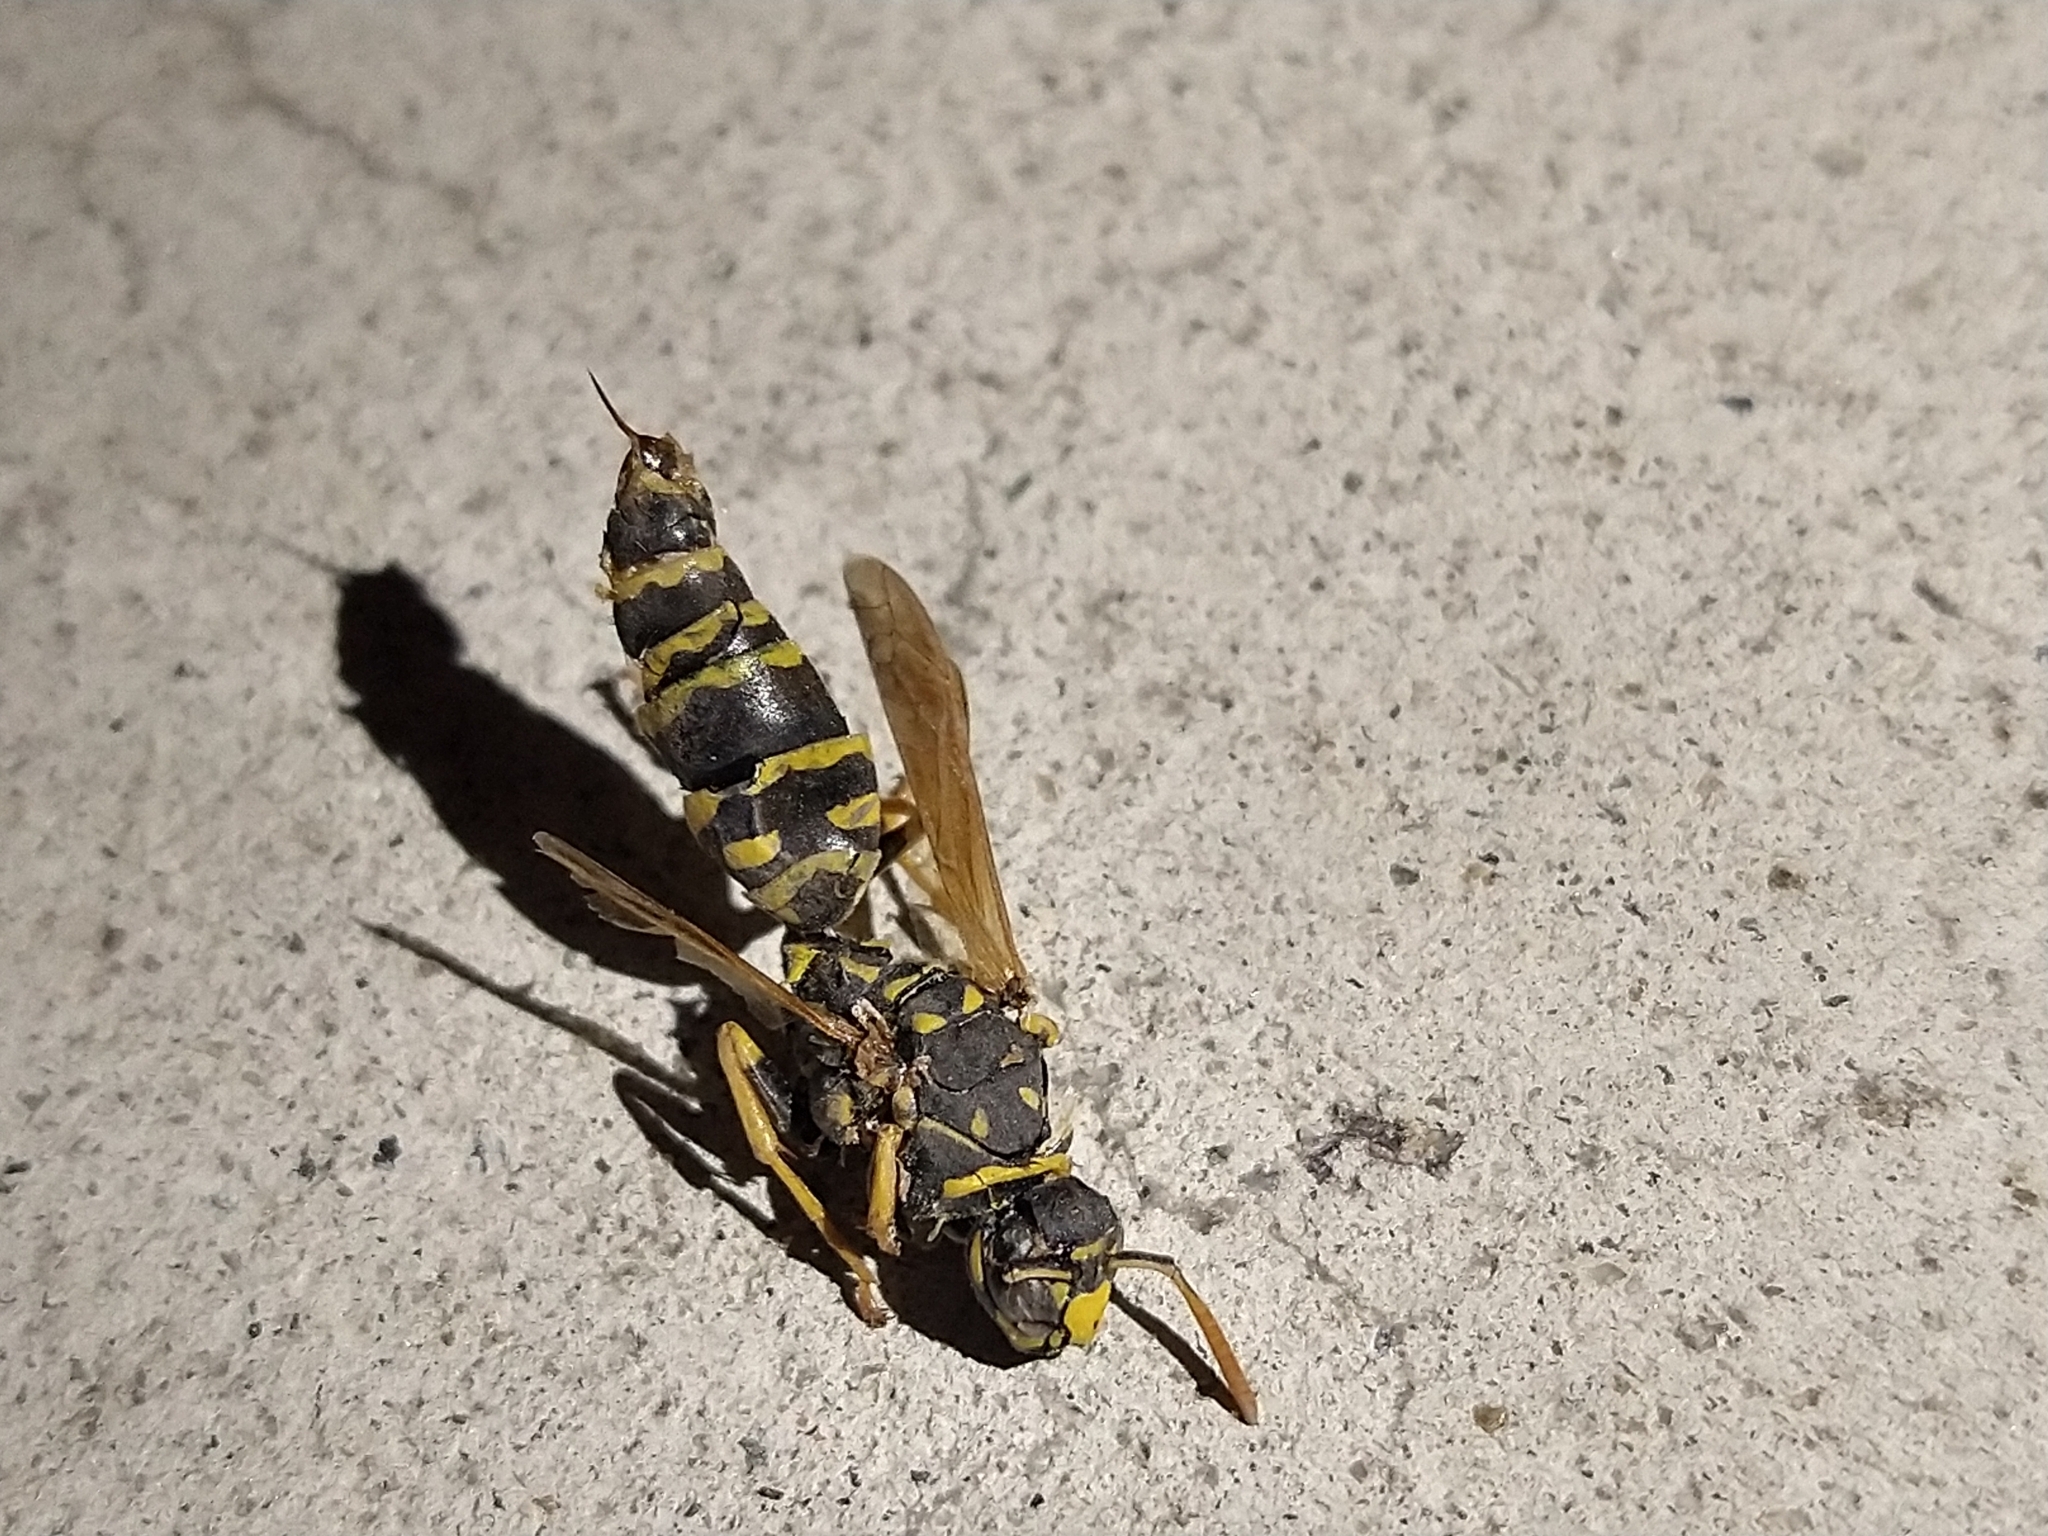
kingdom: Animalia
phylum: Arthropoda
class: Insecta
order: Hymenoptera
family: Eumenidae
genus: Polistes
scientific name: Polistes dominula
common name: Paper wasp
